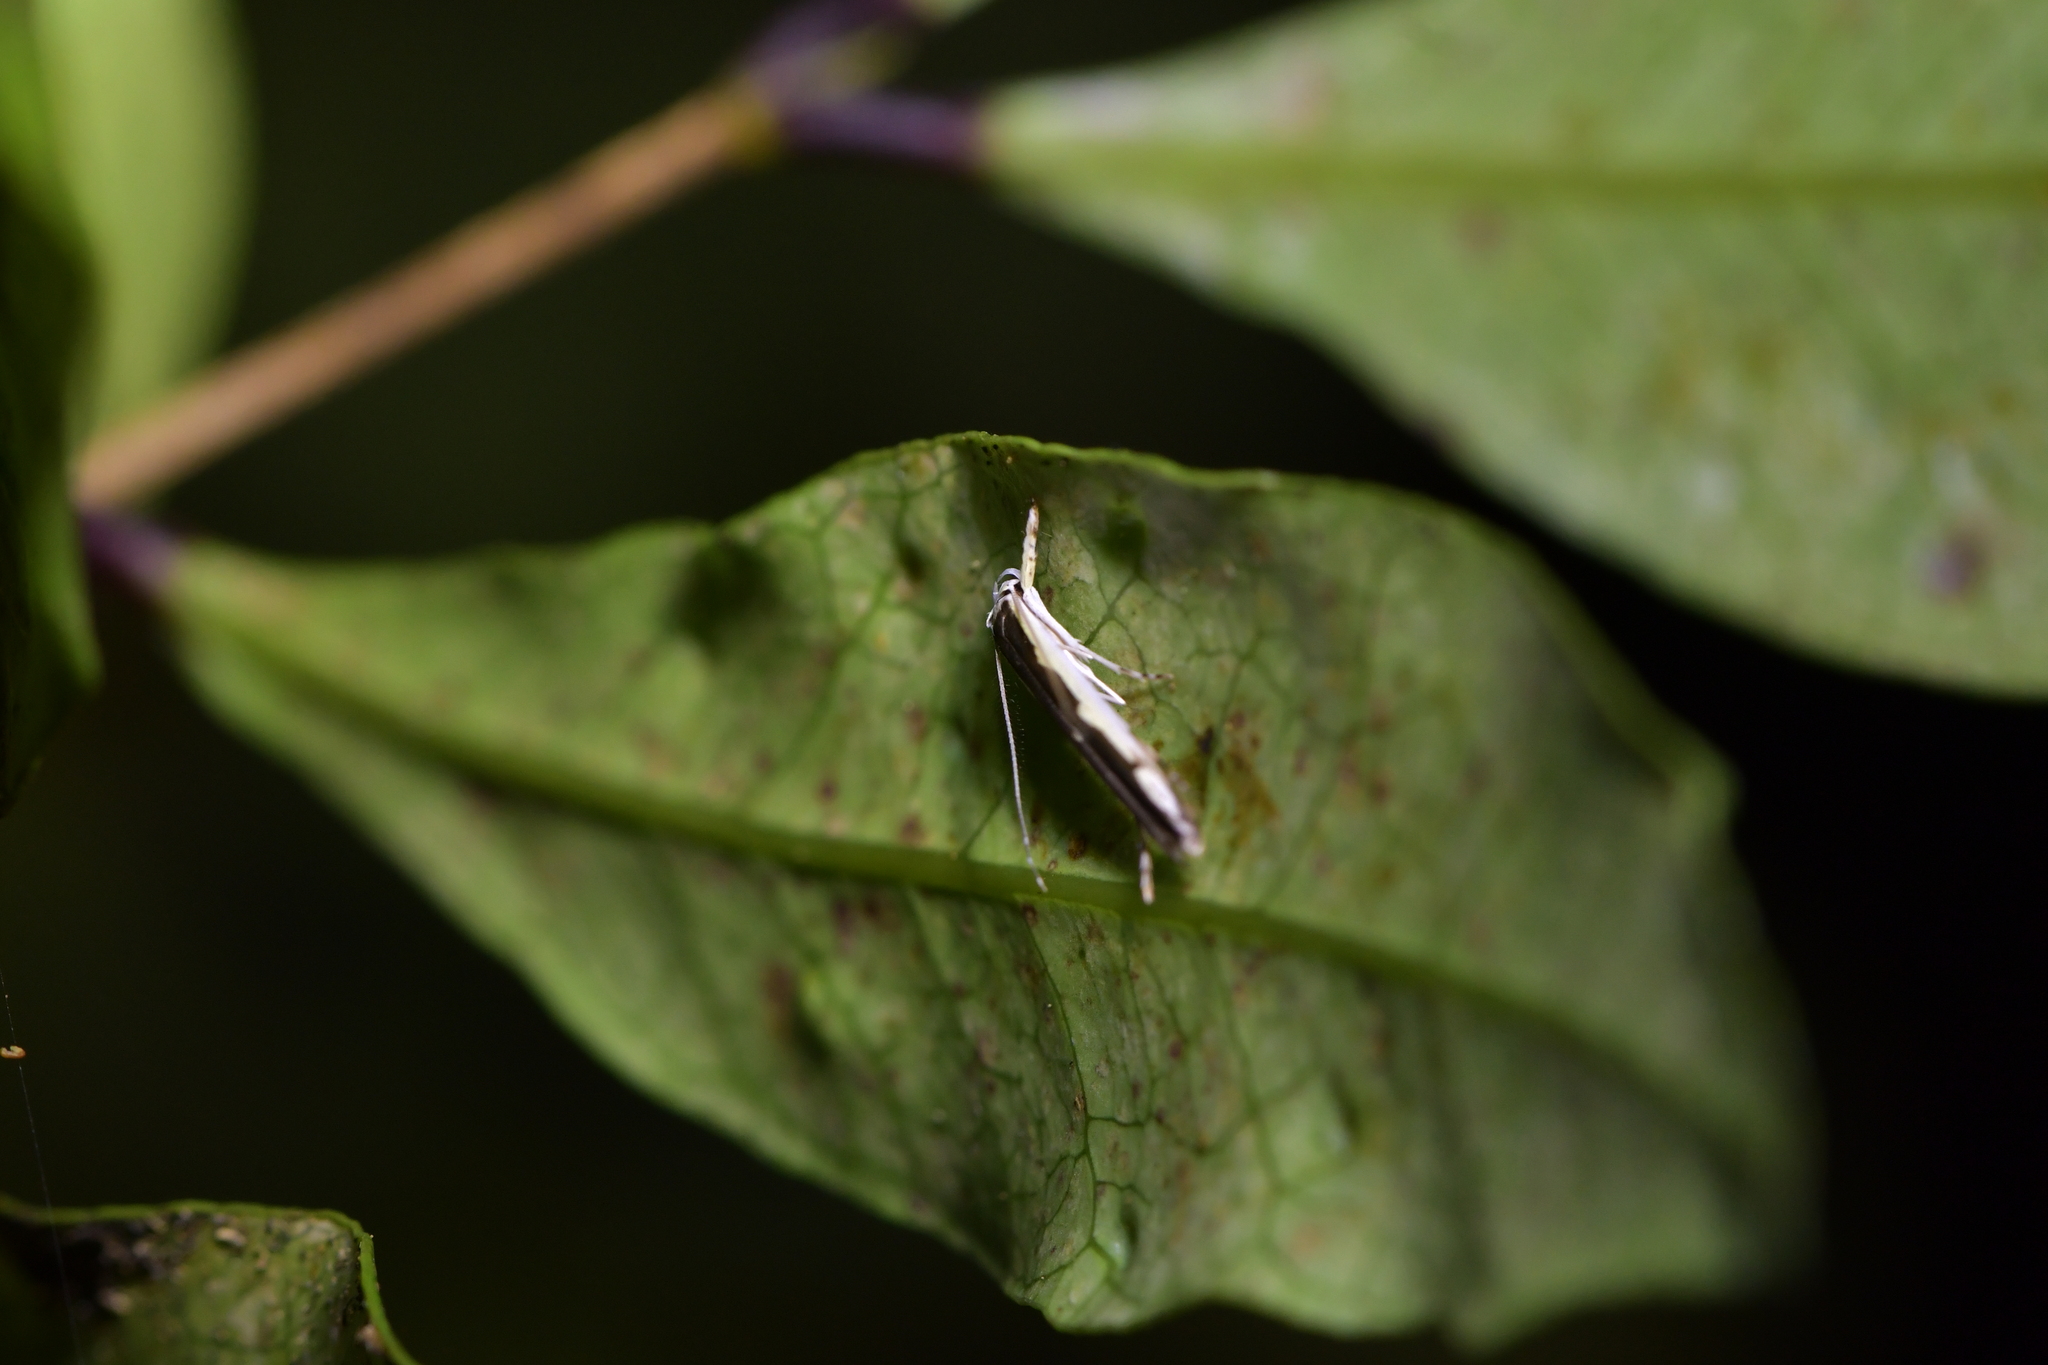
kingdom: Animalia
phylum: Arthropoda
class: Insecta
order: Lepidoptera
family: Roeslerstammiidae
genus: Vanicela
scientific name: Vanicela disjunctella
